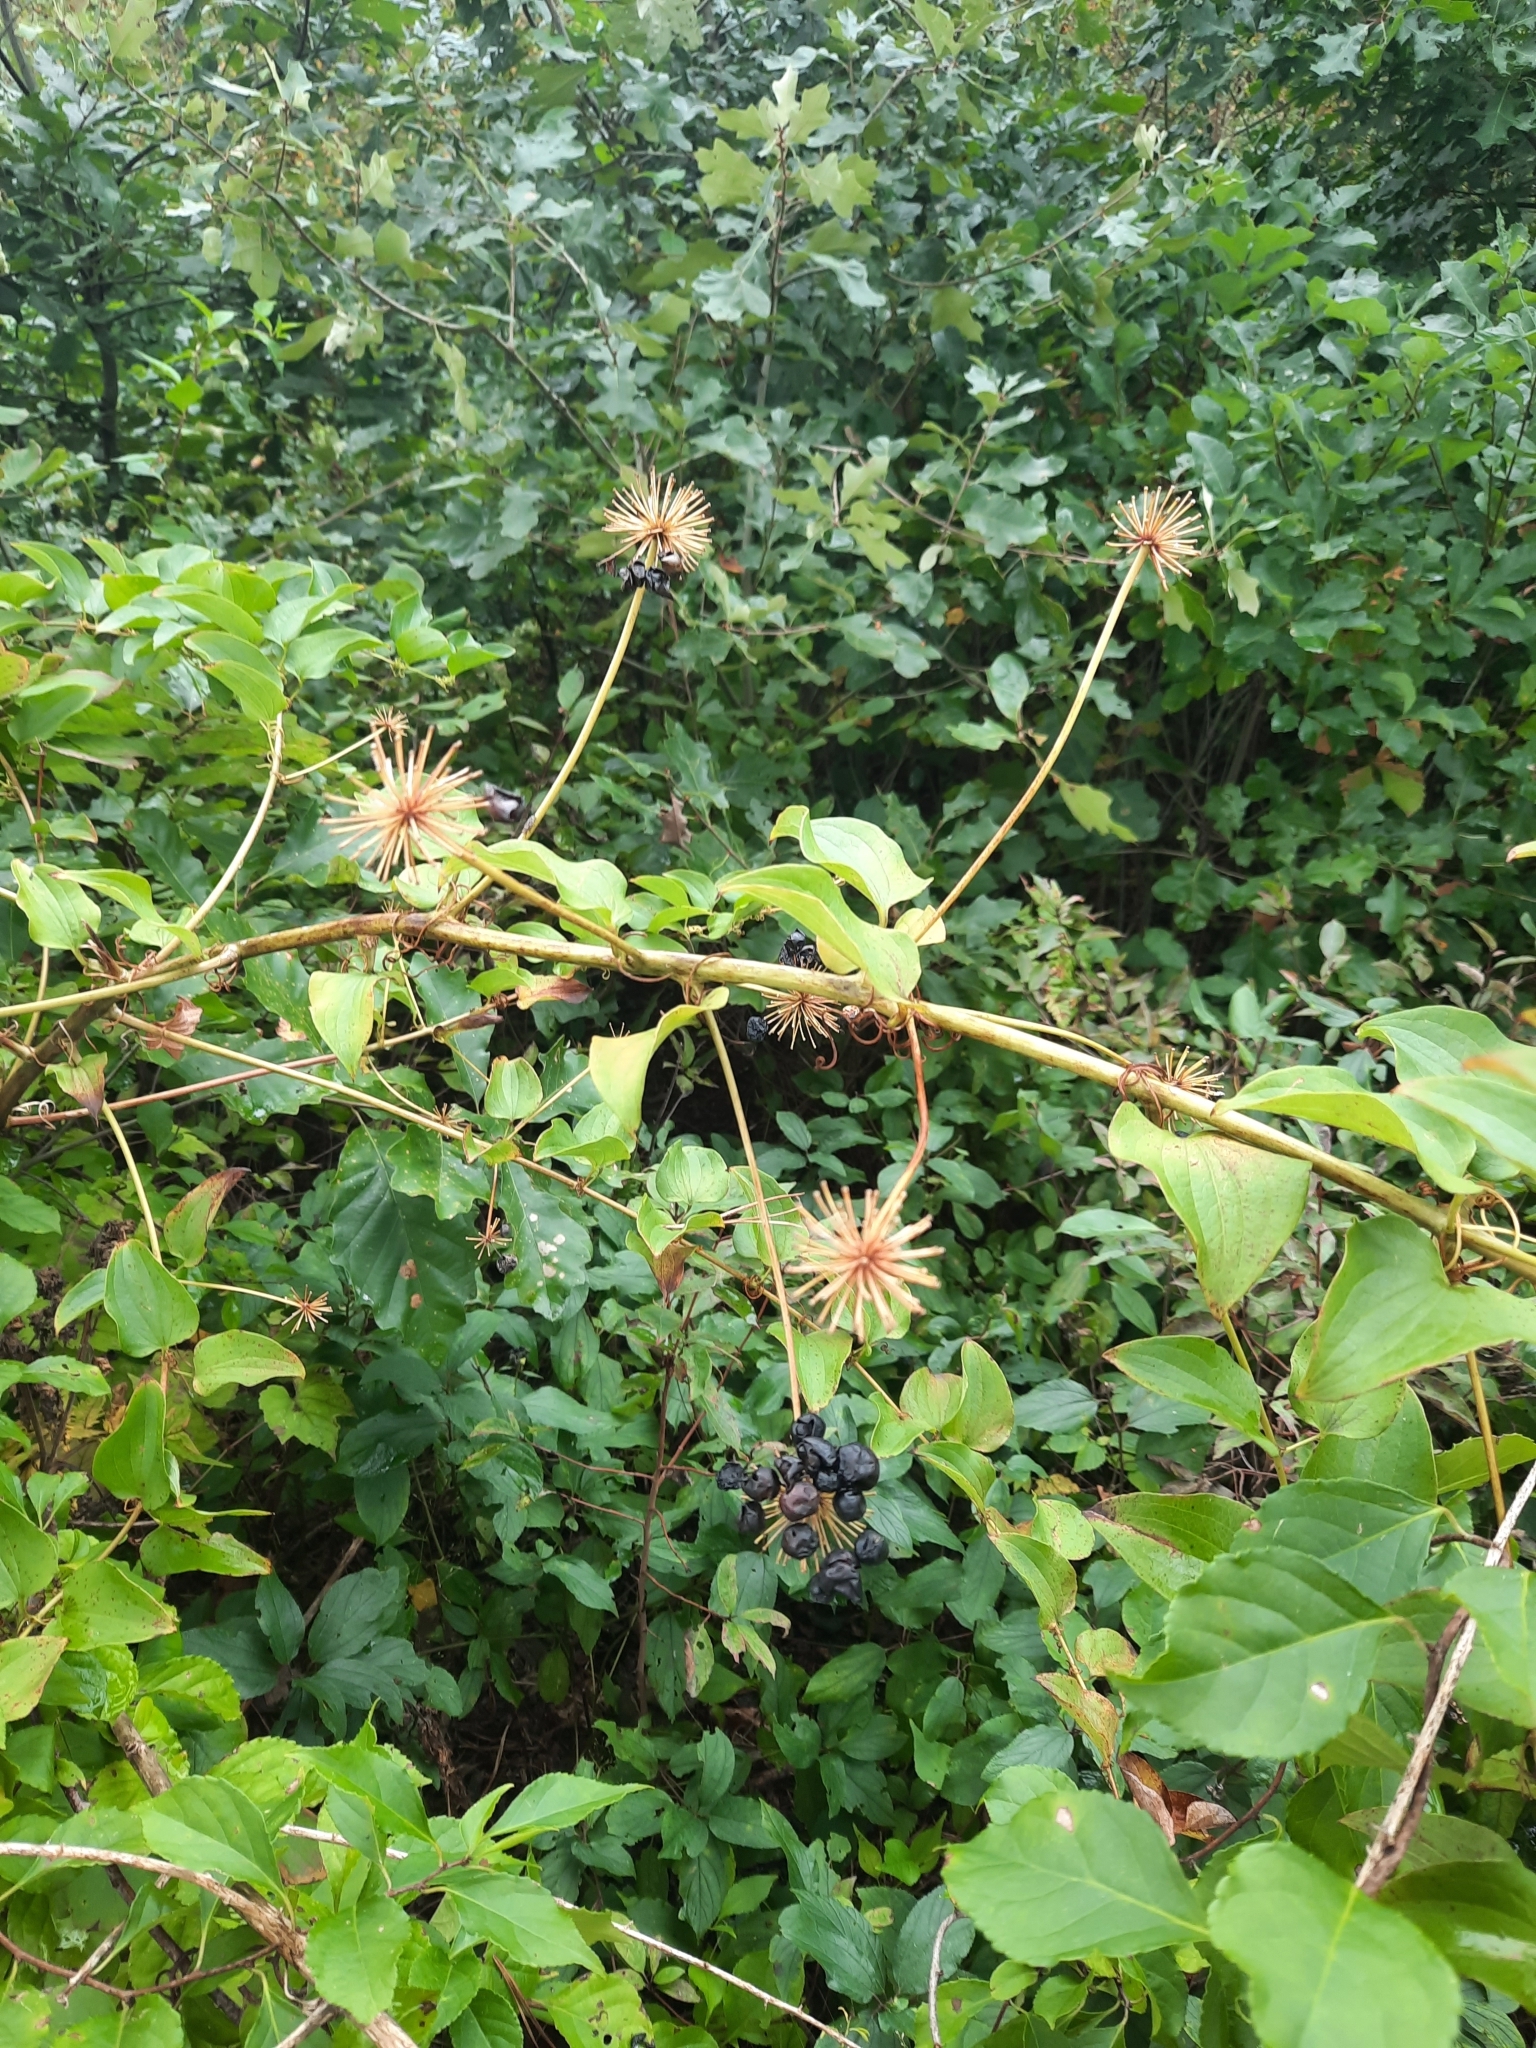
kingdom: Plantae
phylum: Tracheophyta
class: Liliopsida
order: Liliales
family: Smilacaceae
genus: Smilax
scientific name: Smilax herbacea
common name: Jacob's-ladder
